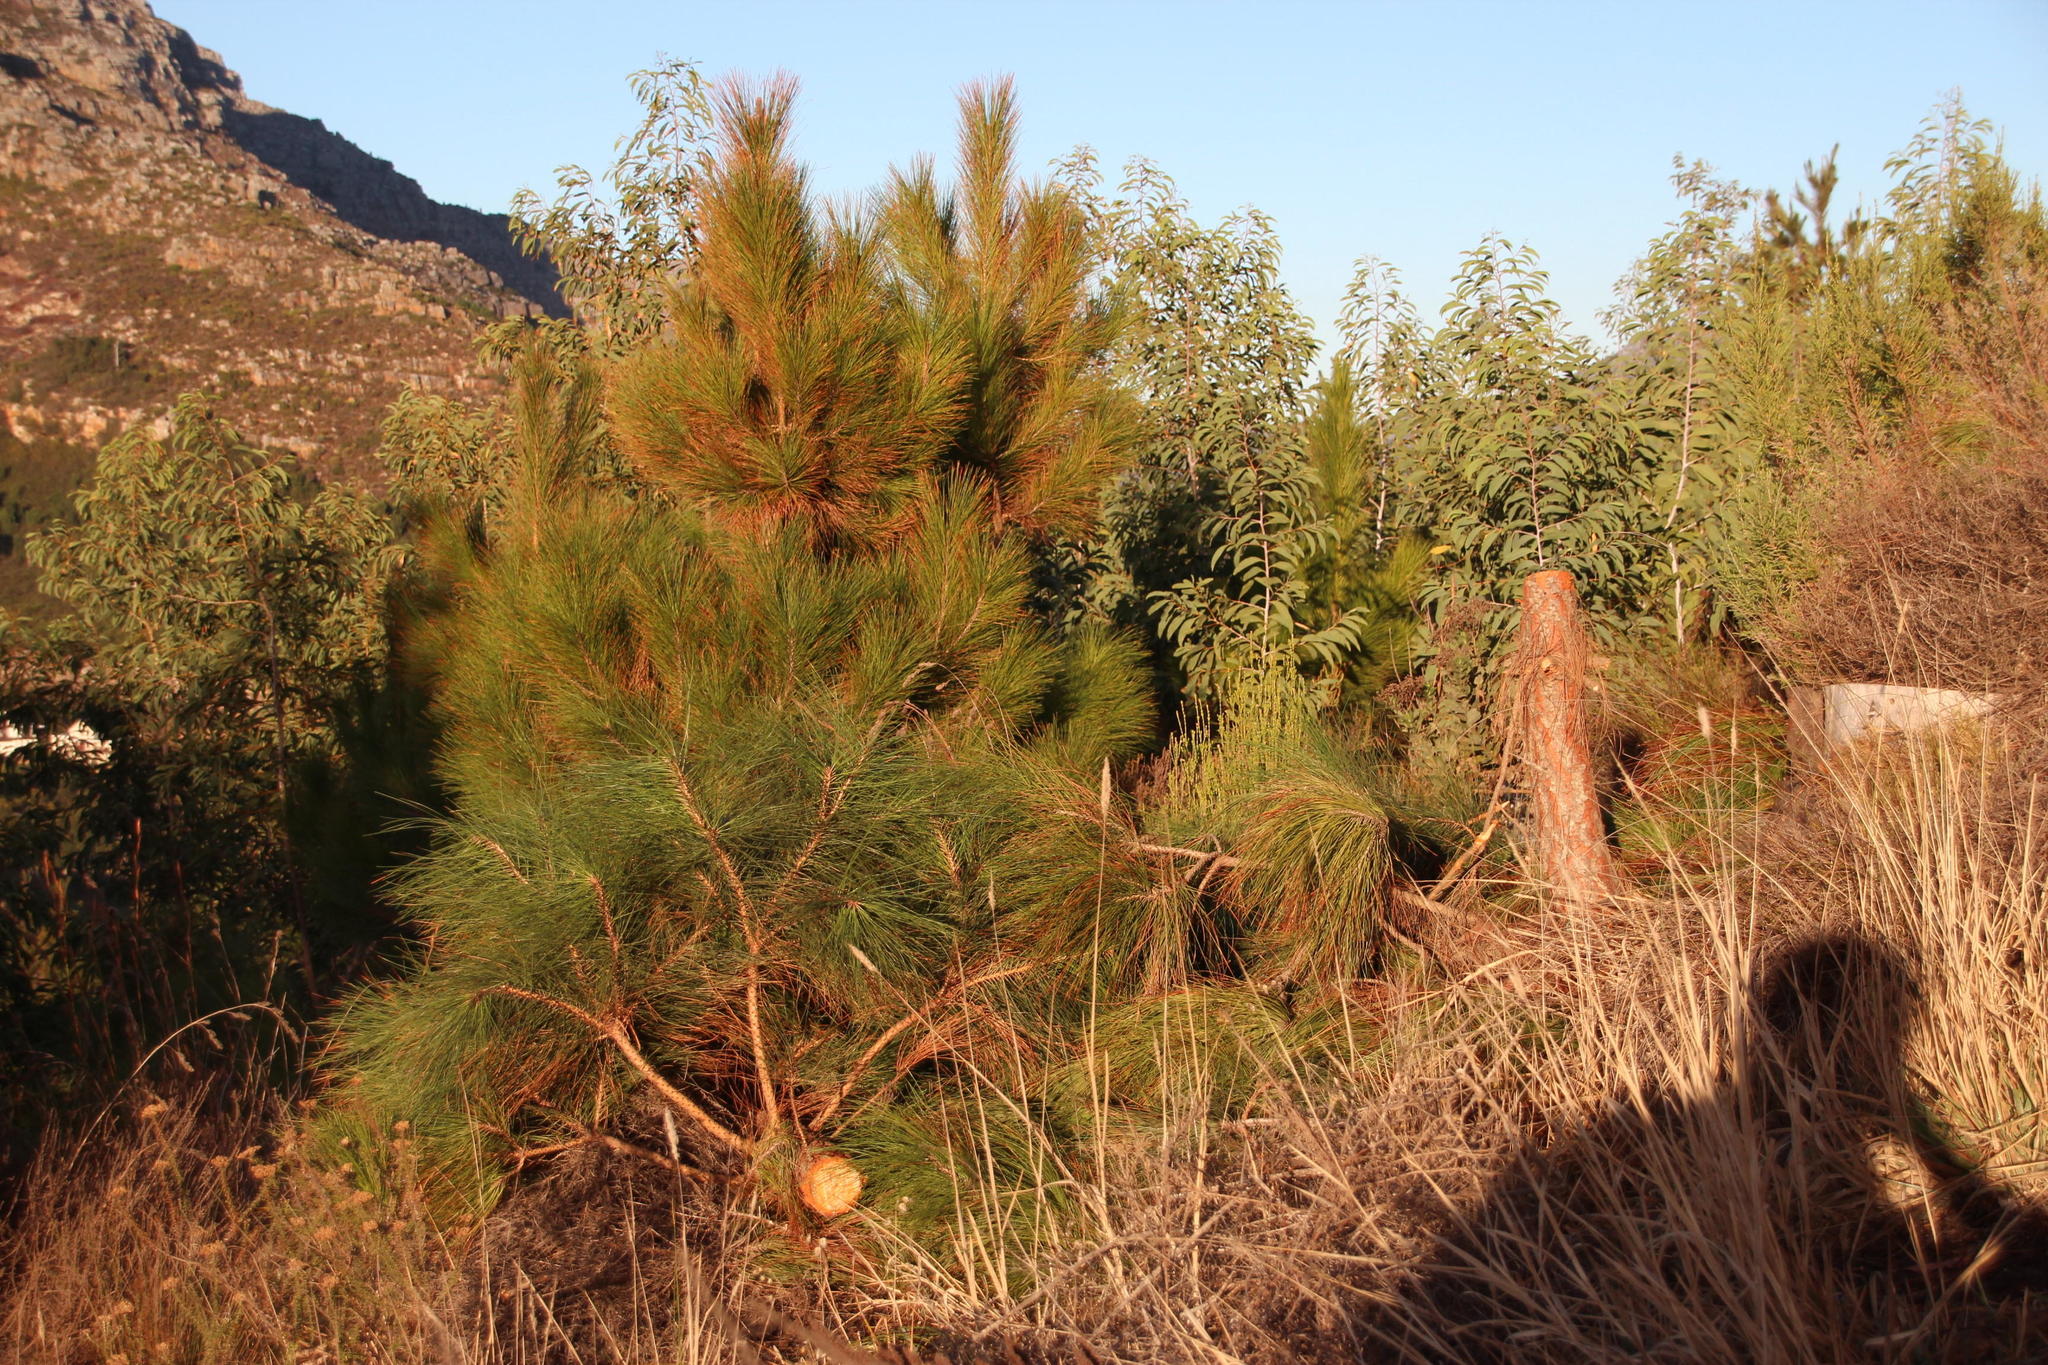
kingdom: Plantae
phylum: Tracheophyta
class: Pinopsida
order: Pinales
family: Pinaceae
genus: Pinus
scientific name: Pinus canariensis
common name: Canary islands pine
